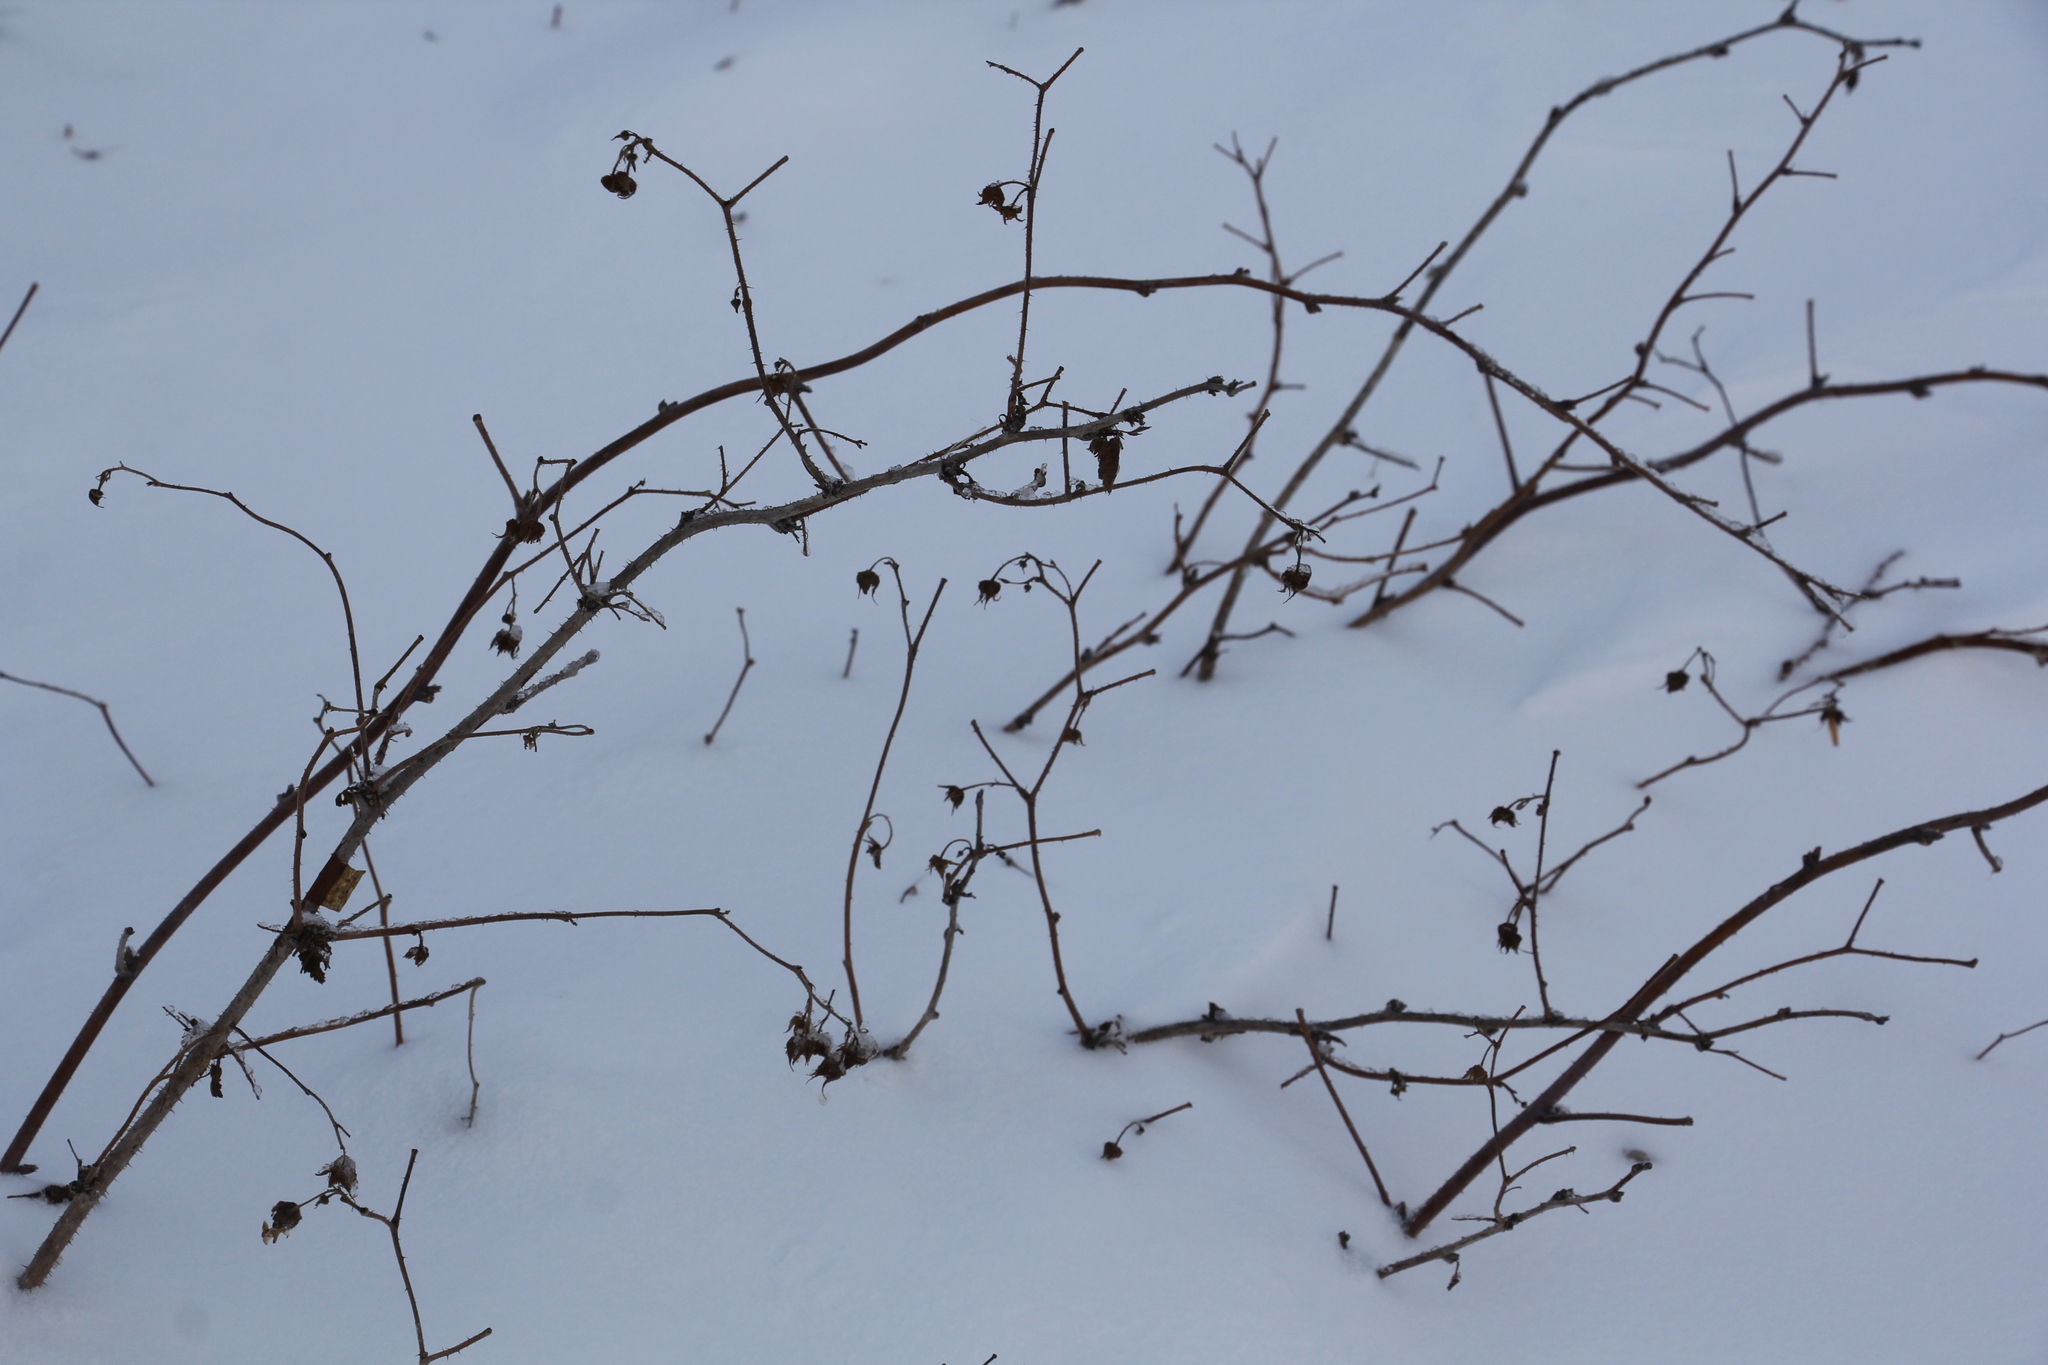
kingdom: Plantae
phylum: Tracheophyta
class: Magnoliopsida
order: Rosales
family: Rosaceae
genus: Rubus
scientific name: Rubus idaeus
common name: Raspberry
